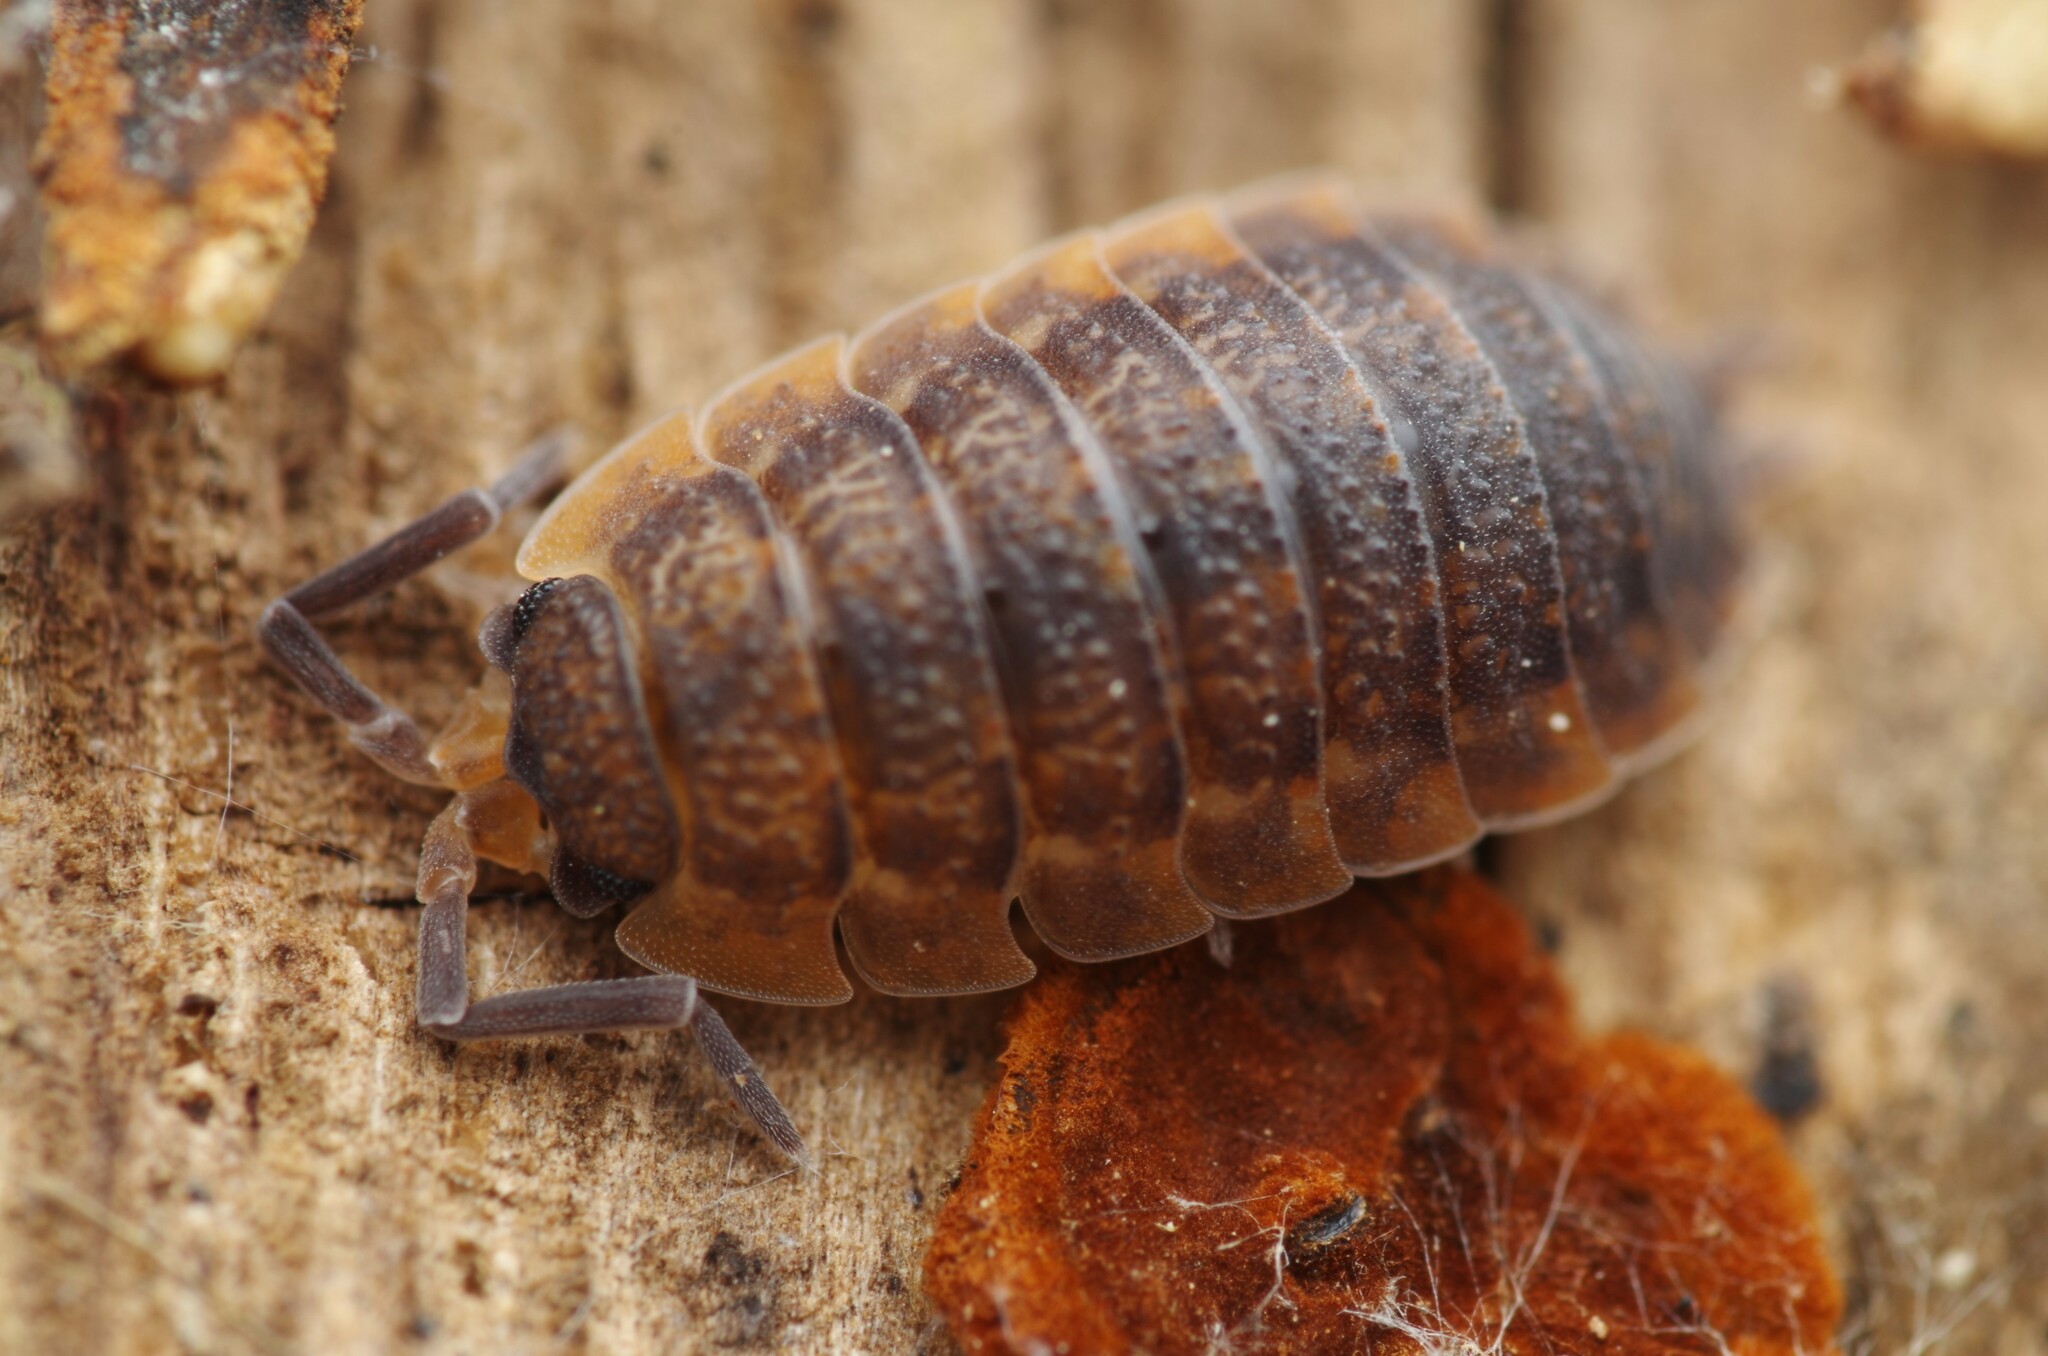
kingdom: Animalia
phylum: Arthropoda
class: Malacostraca
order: Isopoda
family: Porcellionidae
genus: Porcellio
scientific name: Porcellio scaber
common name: Common rough woodlouse
